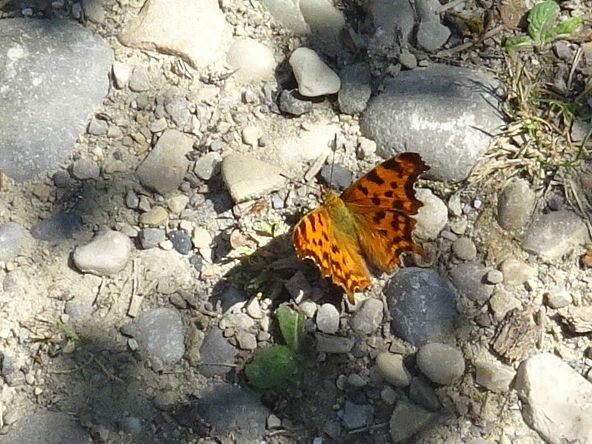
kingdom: Animalia
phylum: Arthropoda
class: Insecta
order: Lepidoptera
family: Nymphalidae
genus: Polygonia
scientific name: Polygonia c-album
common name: Comma
